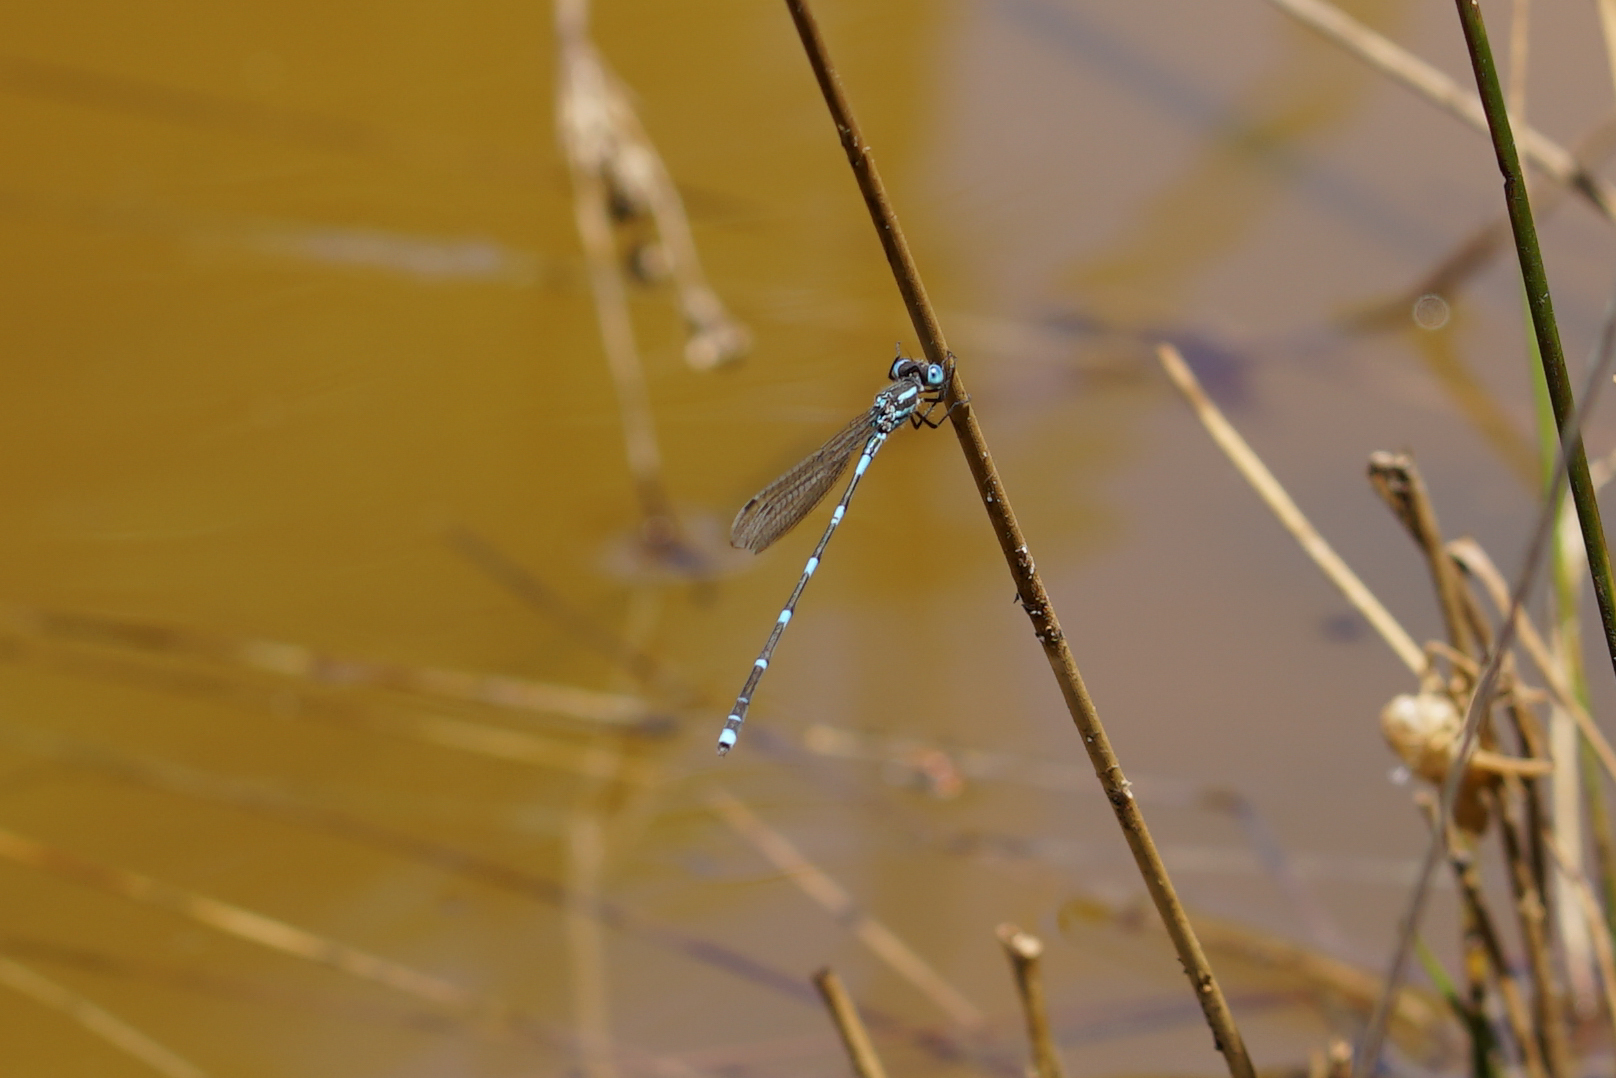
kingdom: Animalia
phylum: Arthropoda
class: Insecta
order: Odonata
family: Lestidae
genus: Austrolestes
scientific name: Austrolestes leda
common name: Wandering ringtail
